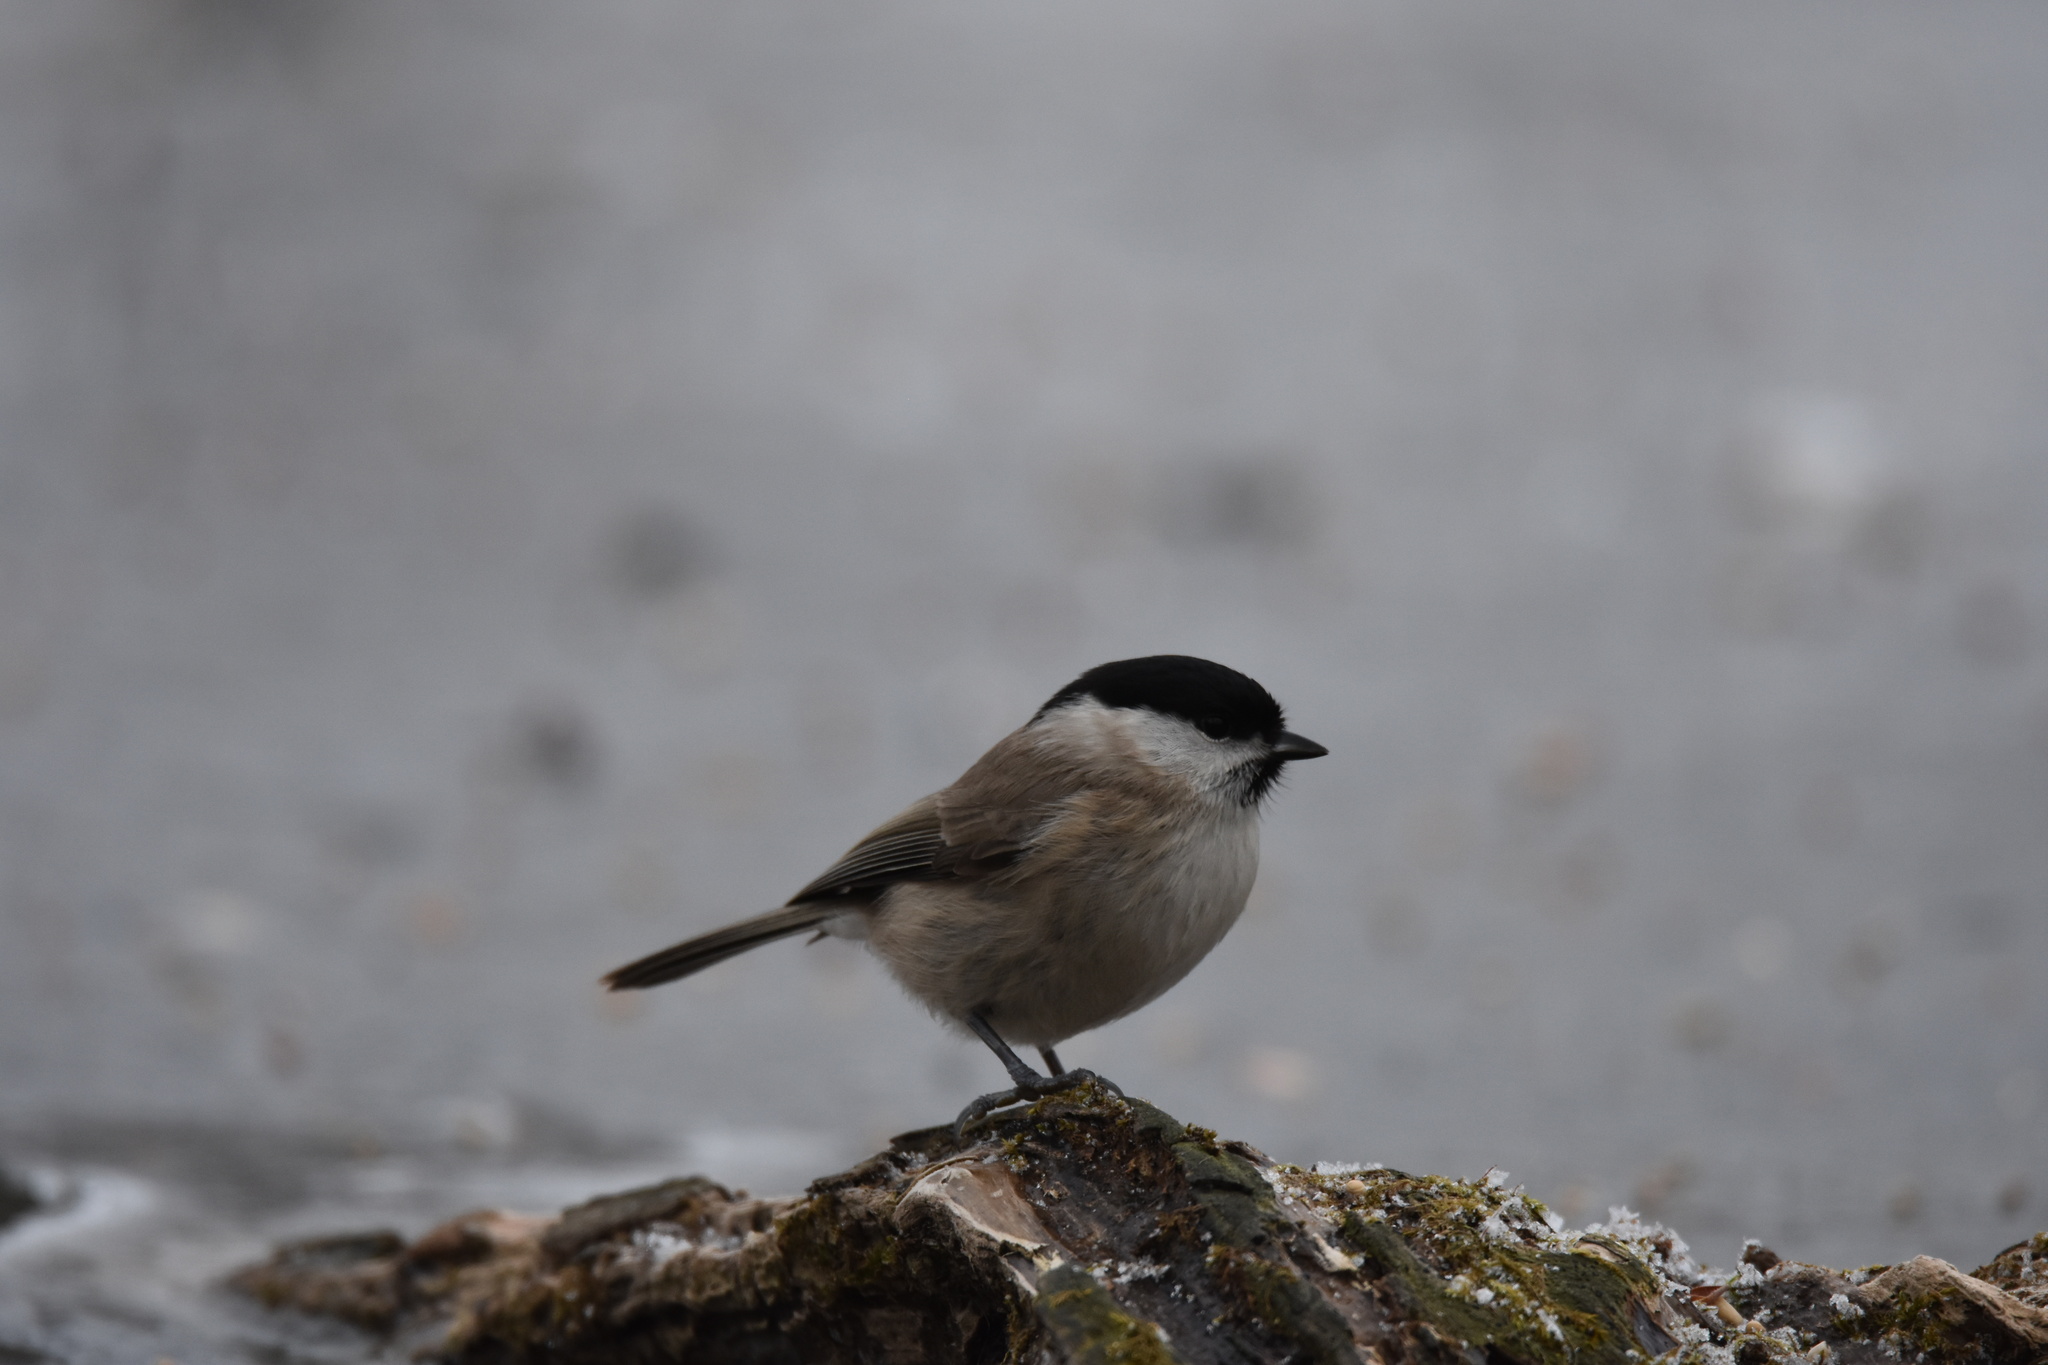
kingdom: Animalia
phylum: Chordata
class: Aves
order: Passeriformes
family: Paridae
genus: Poecile
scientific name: Poecile palustris
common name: Marsh tit
